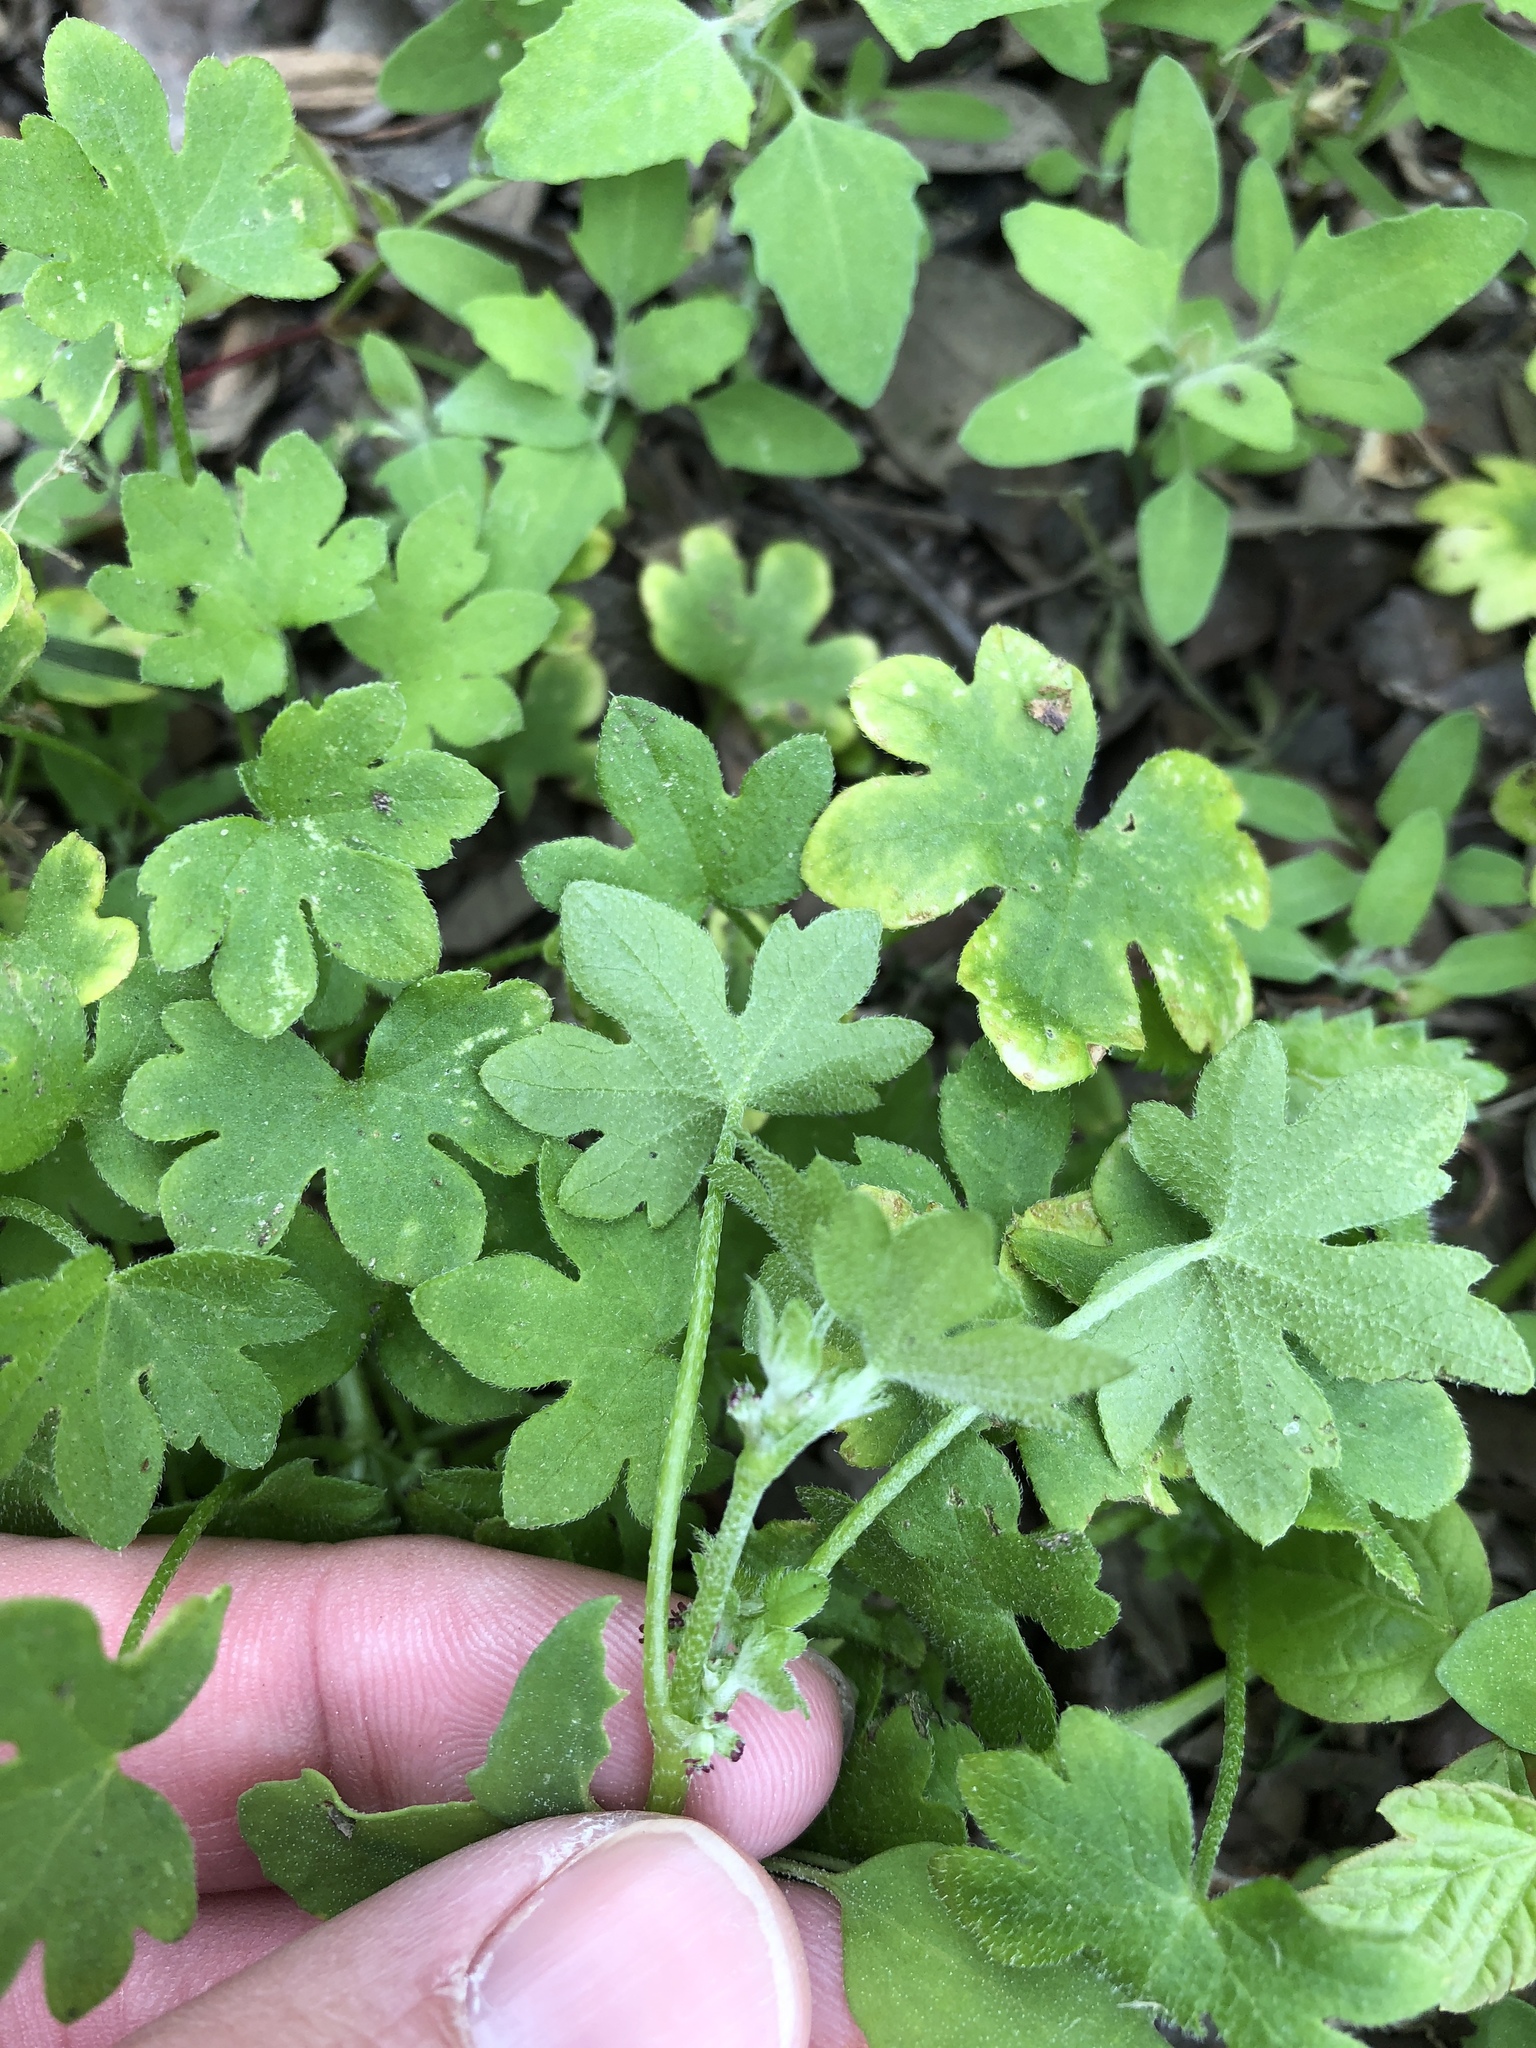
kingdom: Plantae
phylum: Tracheophyta
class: Magnoliopsida
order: Apiales
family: Apiaceae
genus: Bowlesia
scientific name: Bowlesia incana
